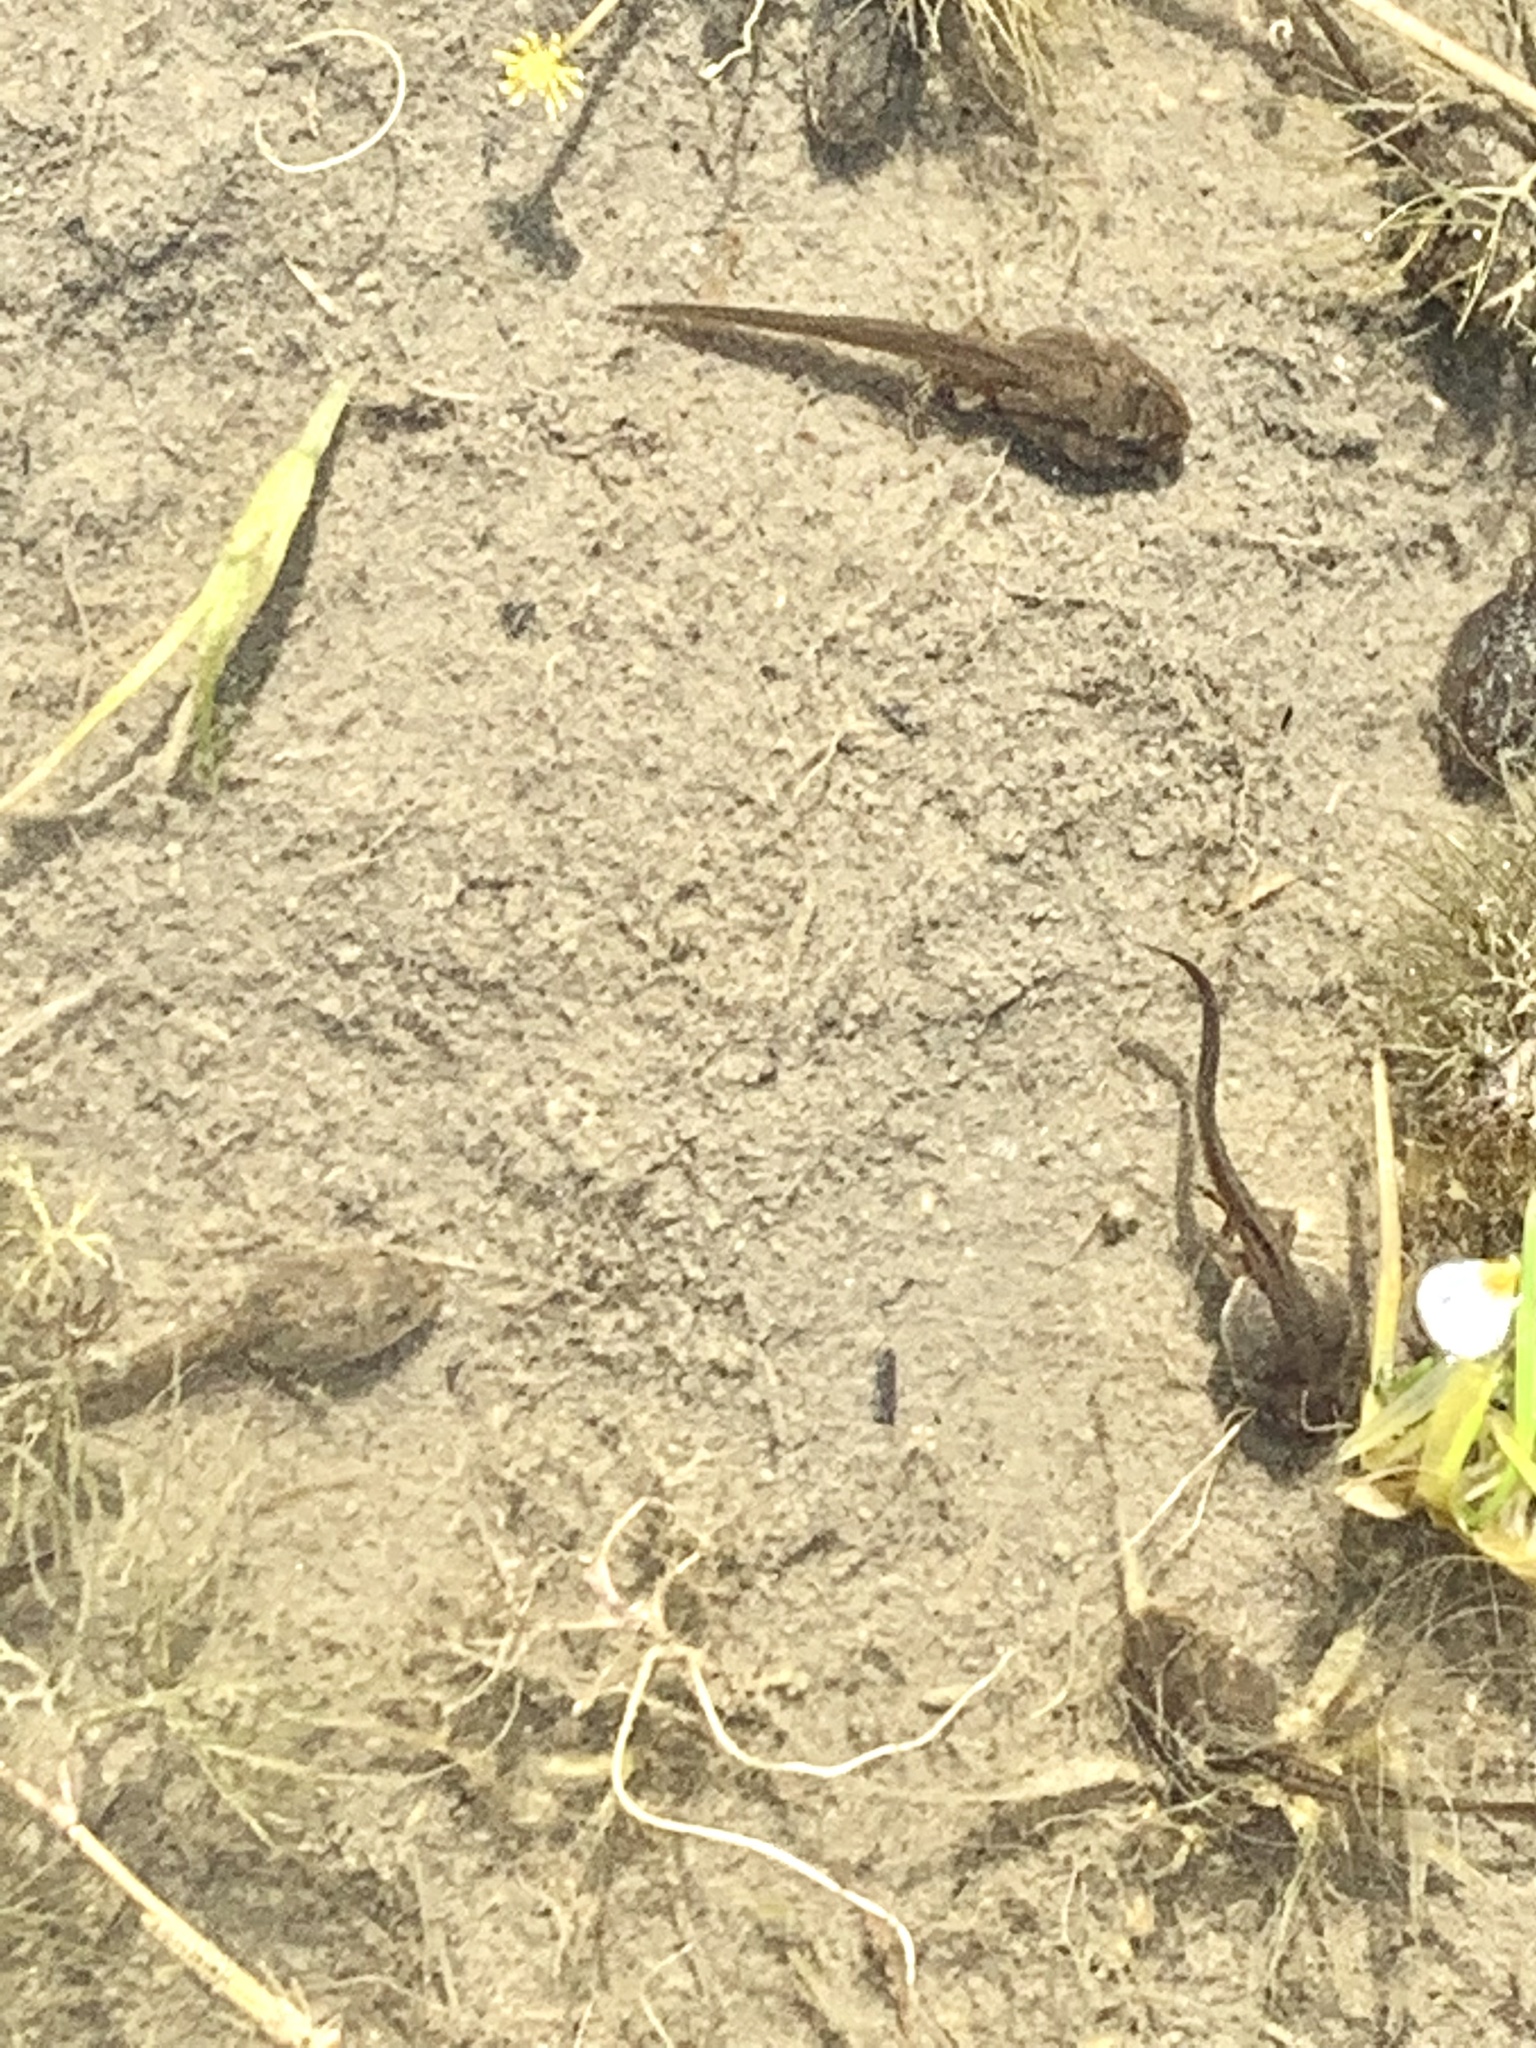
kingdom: Animalia
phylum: Chordata
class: Amphibia
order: Anura
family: Ranidae
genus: Rana
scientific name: Rana temporaria
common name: Common frog
